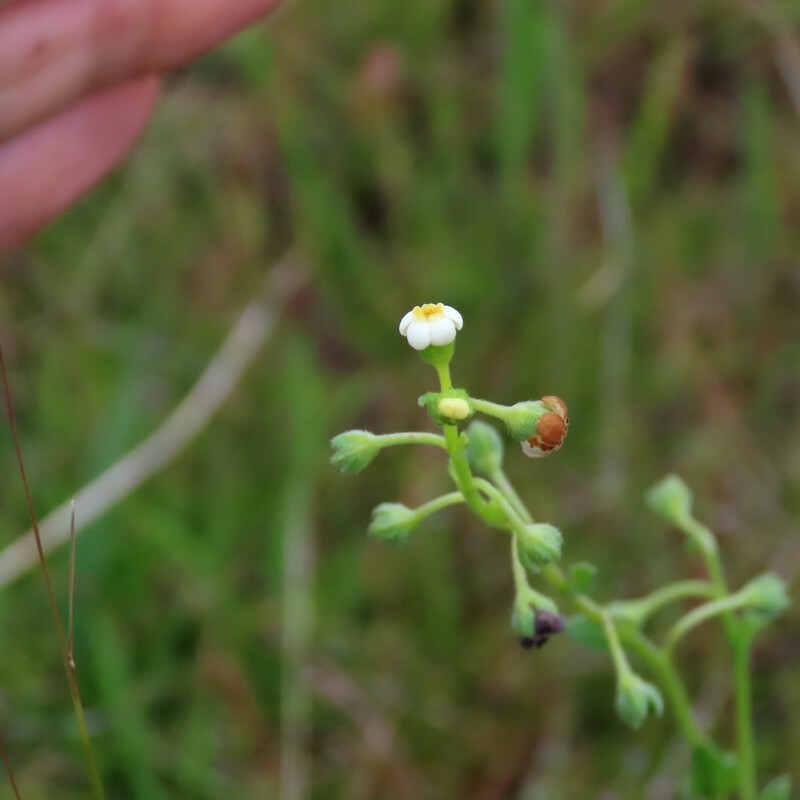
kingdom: Plantae
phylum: Tracheophyta
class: Magnoliopsida
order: Boraginales
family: Boraginaceae
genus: Hackelia
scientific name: Hackelia suaveolens
